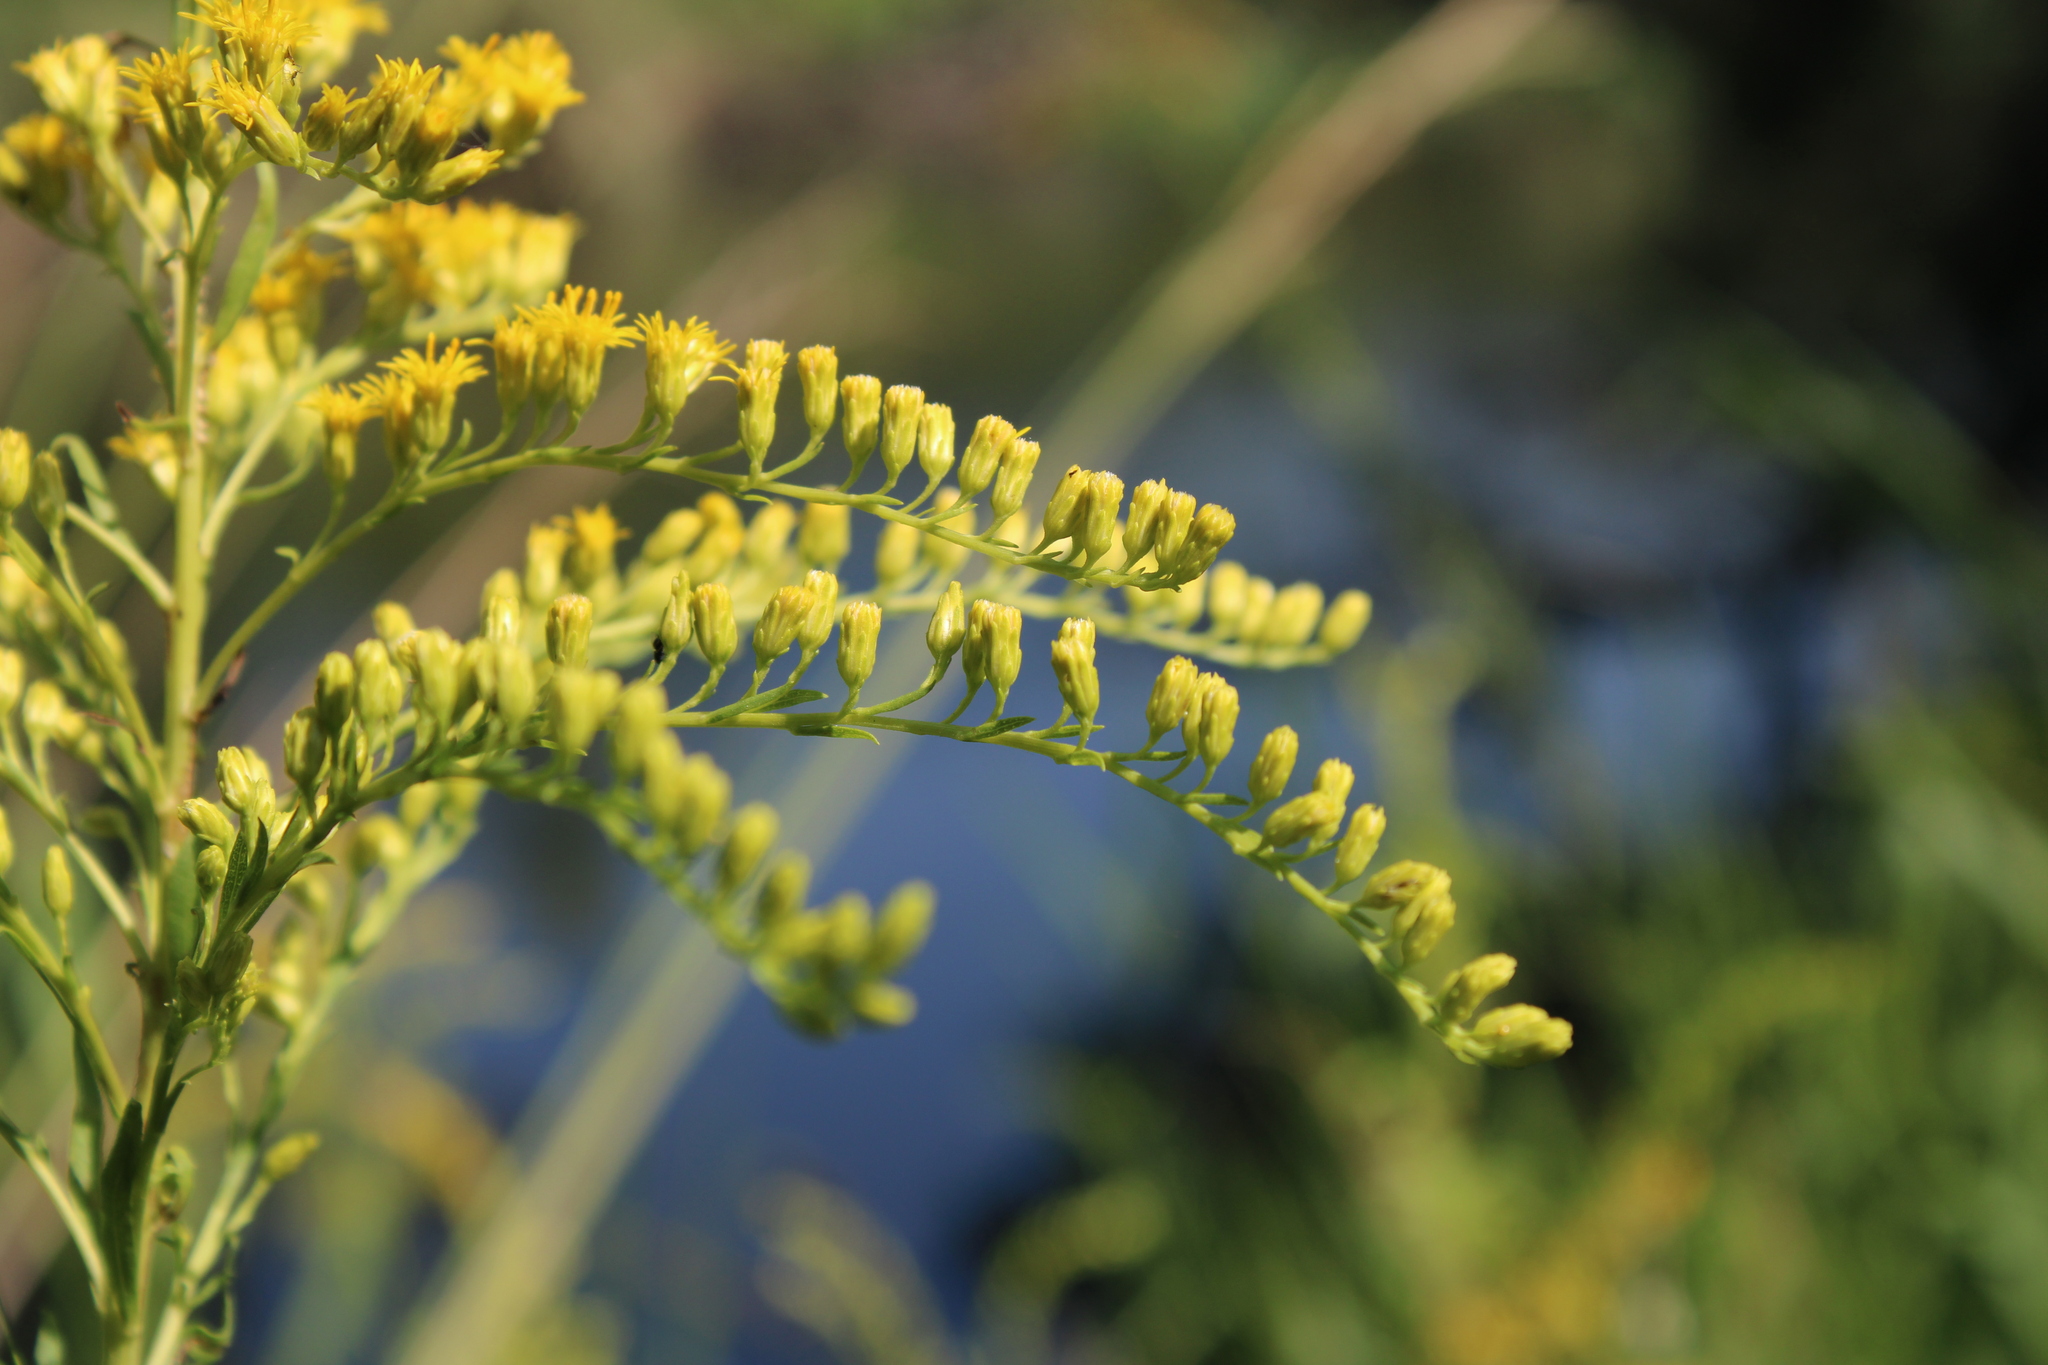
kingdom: Plantae
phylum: Tracheophyta
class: Magnoliopsida
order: Asterales
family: Asteraceae
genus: Solidago
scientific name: Solidago chilensis
